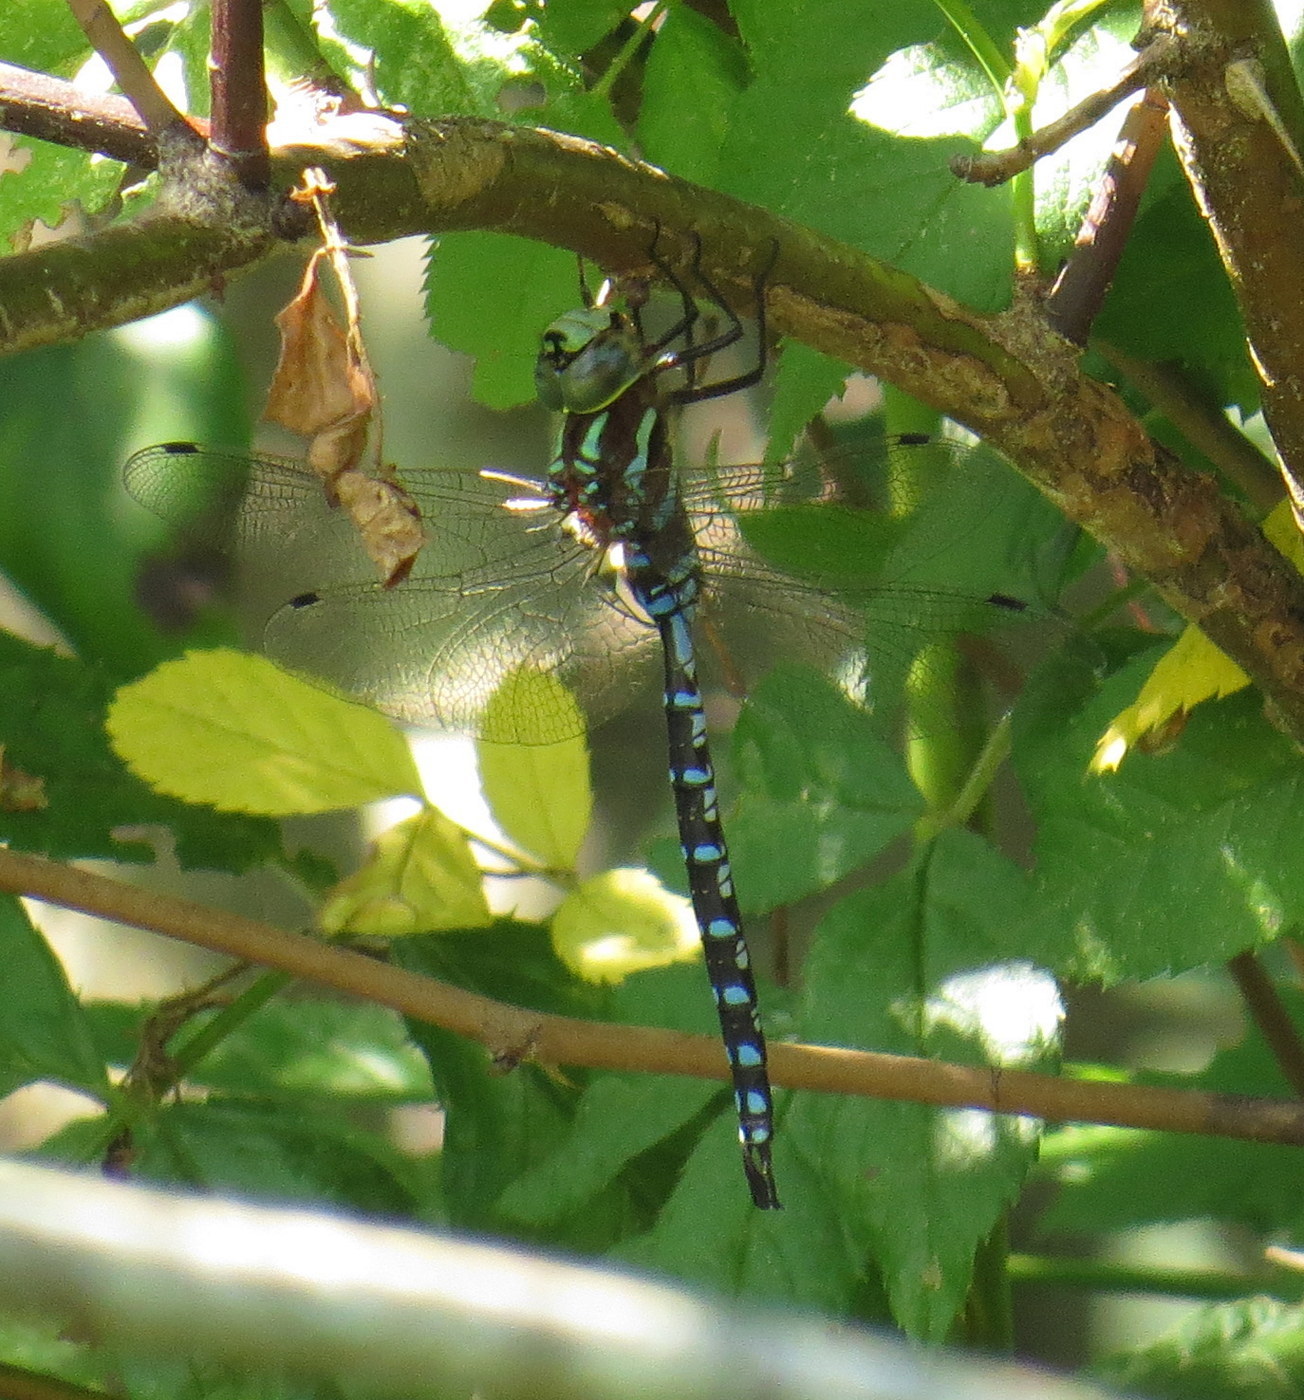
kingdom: Animalia
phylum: Arthropoda
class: Insecta
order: Odonata
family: Aeshnidae
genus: Aeshna
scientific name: Aeshna constricta
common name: Lance-tipped darner
